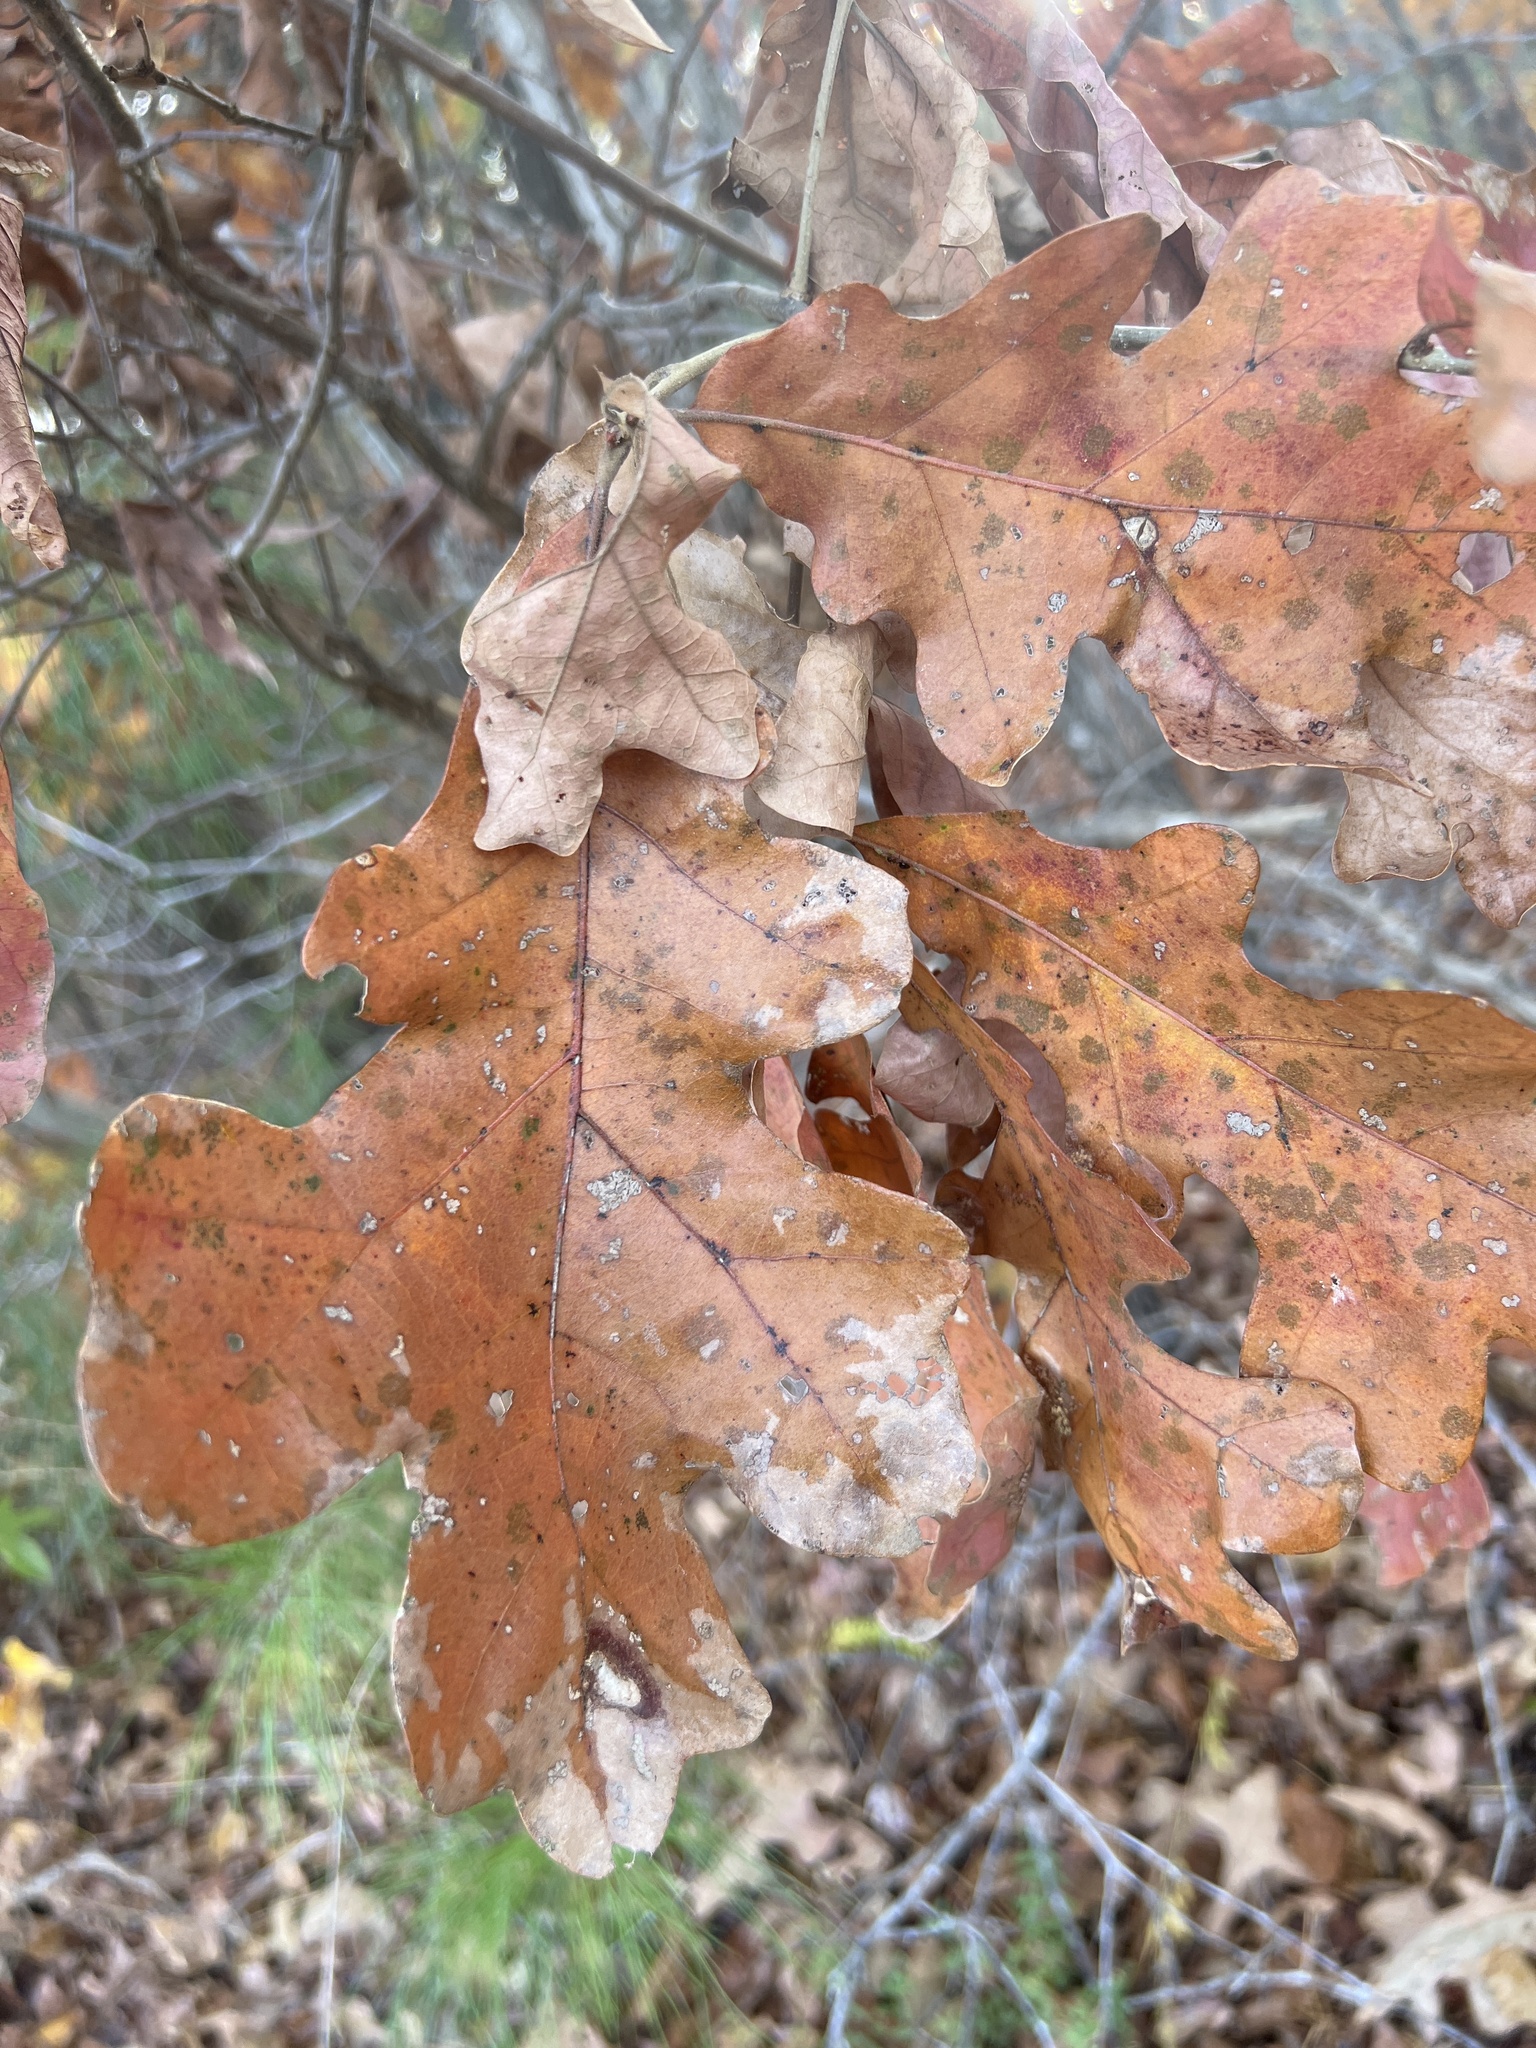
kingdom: Plantae
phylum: Tracheophyta
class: Magnoliopsida
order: Fagales
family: Fagaceae
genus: Quercus
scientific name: Quercus stellata
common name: Post oak
